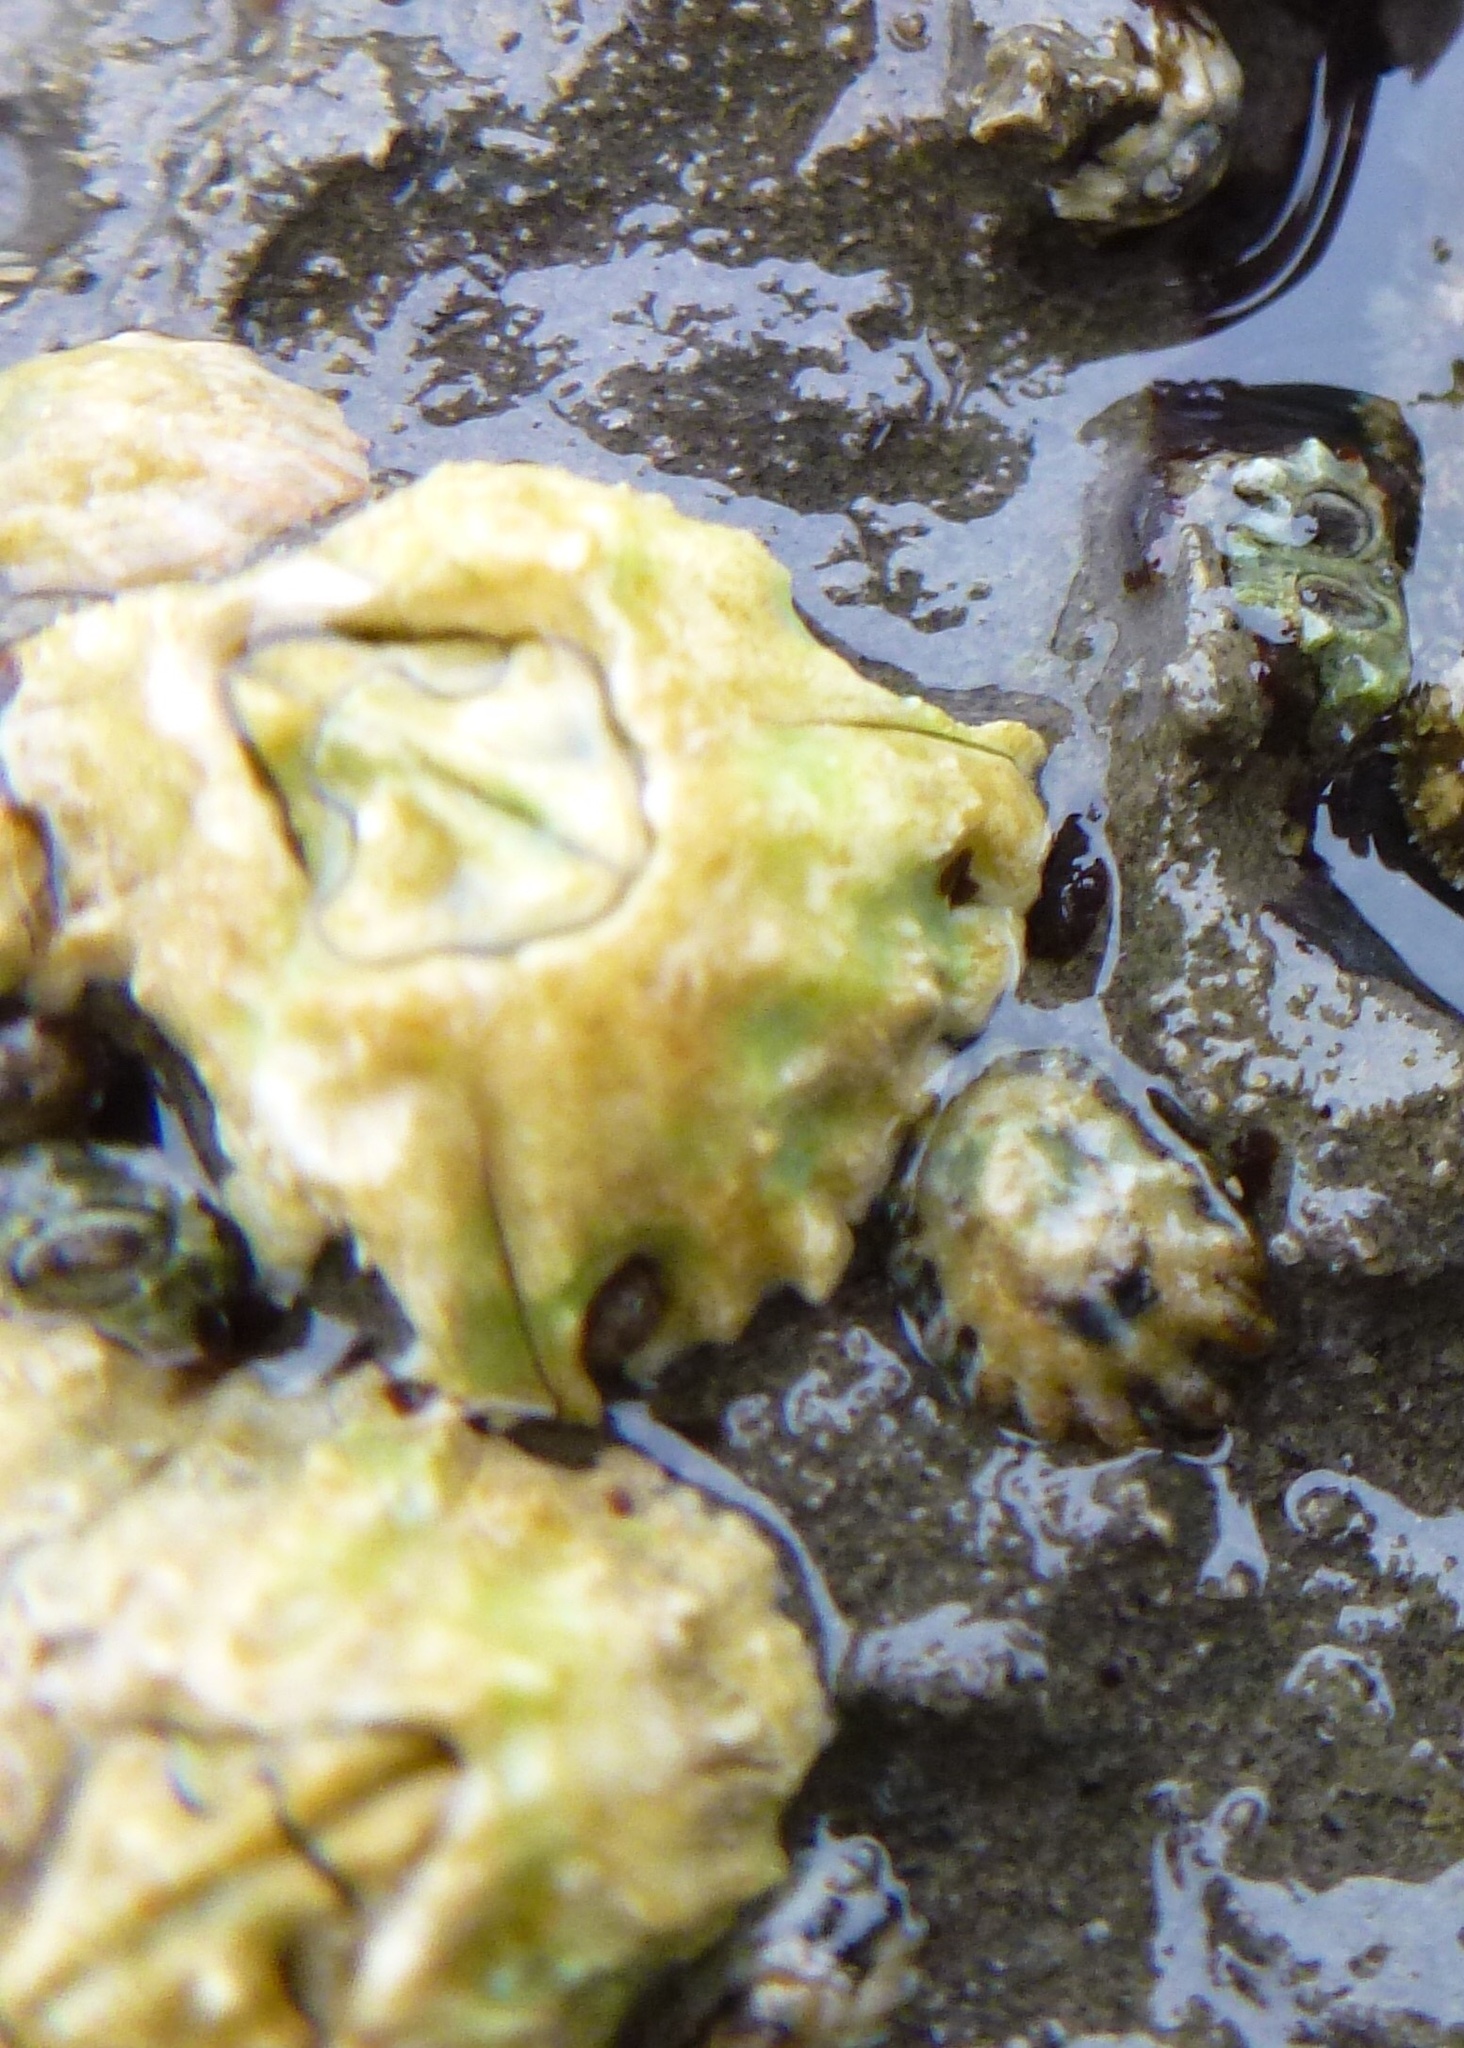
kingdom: Animalia
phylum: Arthropoda
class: Maxillopoda
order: Sessilia
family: Balanidae
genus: Balanus
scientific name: Balanus glandula
